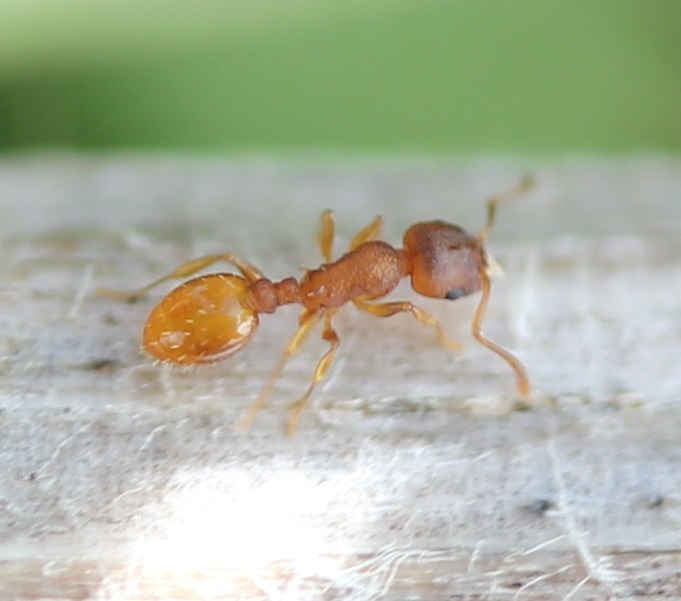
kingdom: Animalia
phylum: Arthropoda
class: Insecta
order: Hymenoptera
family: Formicidae
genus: Temnothorax
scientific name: Temnothorax ambiguus
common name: Doubtful acorn ant
